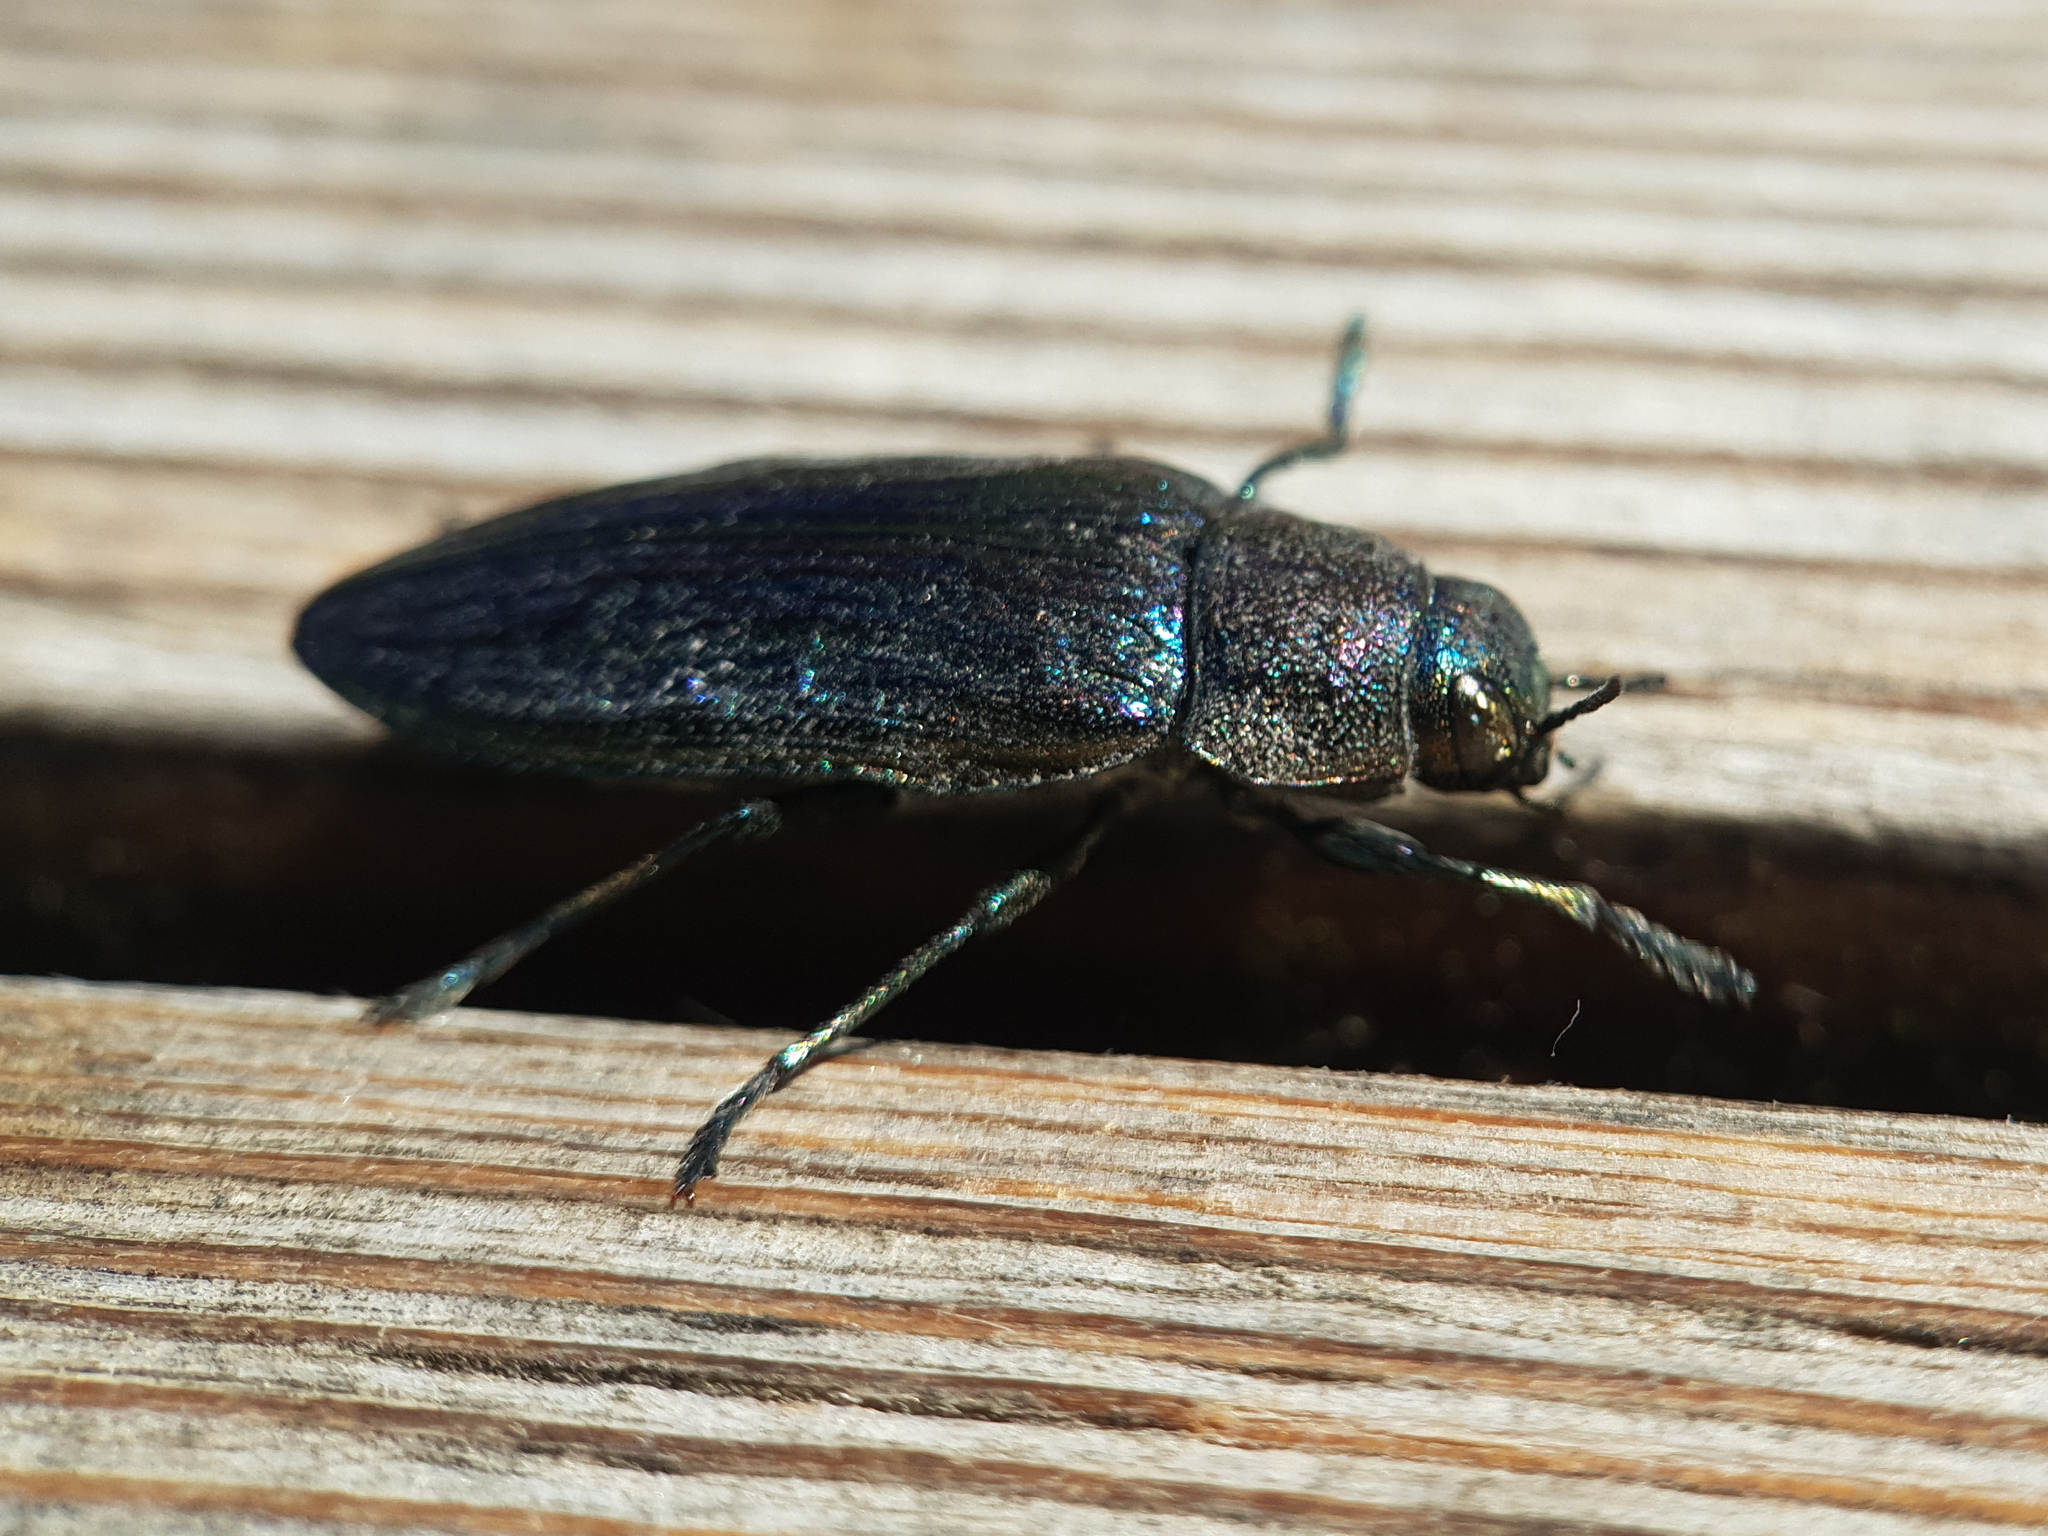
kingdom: Animalia
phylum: Arthropoda
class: Insecta
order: Coleoptera
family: Buprestidae
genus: Buprestis
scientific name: Buprestis rustica
